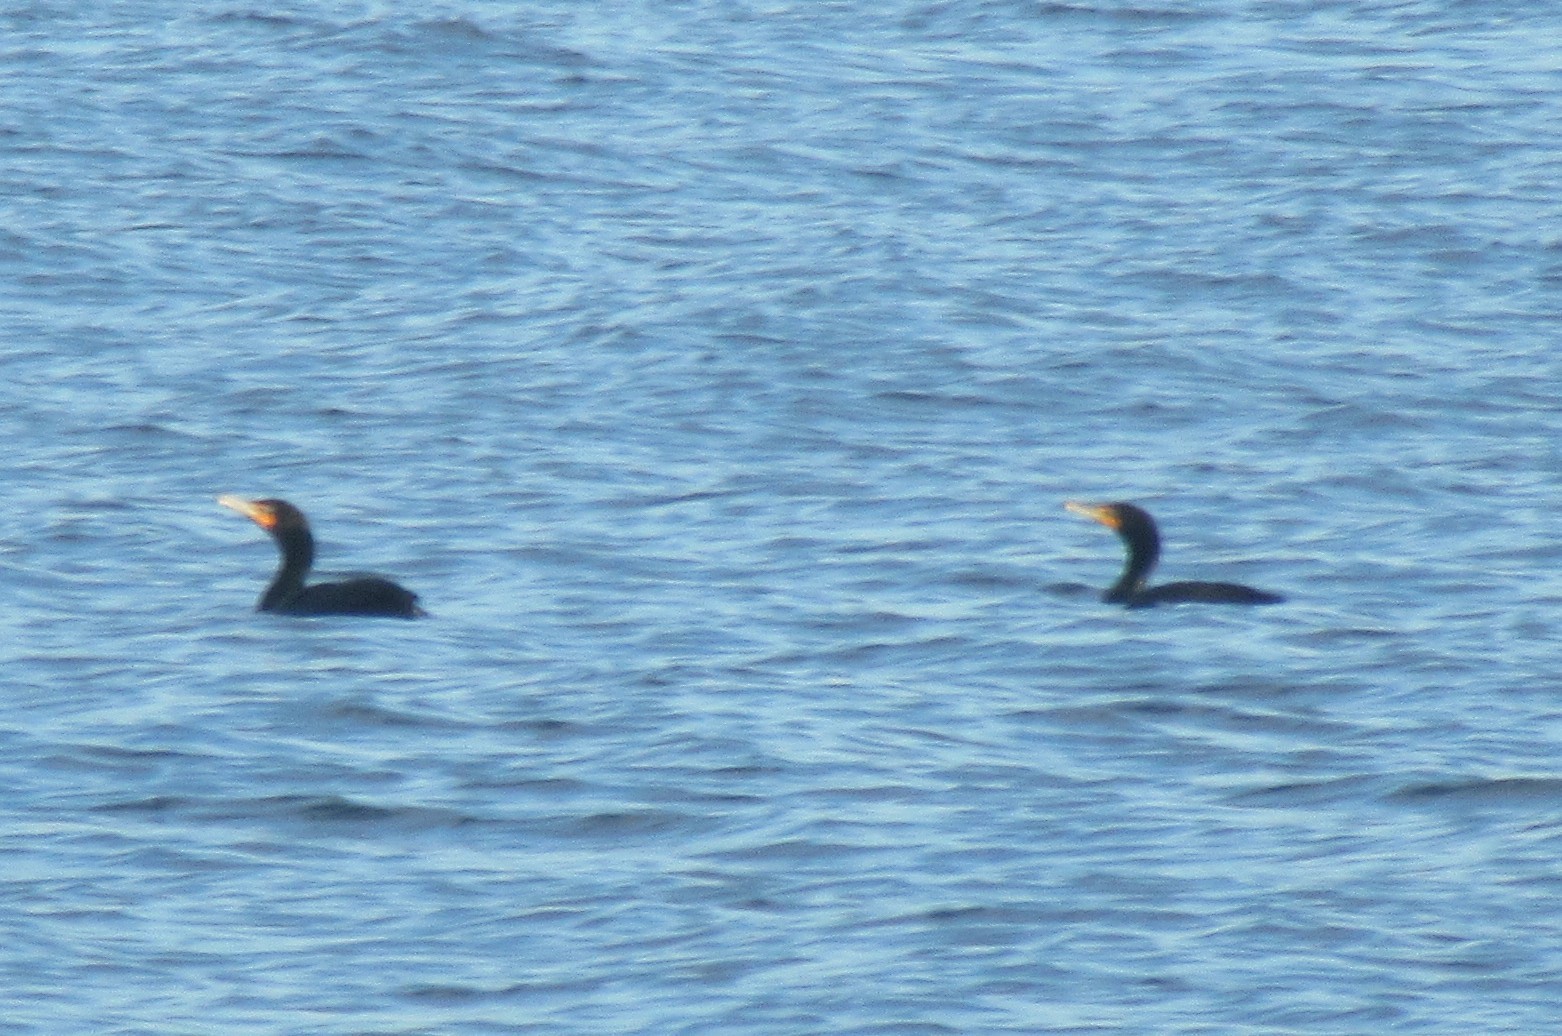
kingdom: Animalia
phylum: Chordata
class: Aves
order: Suliformes
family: Phalacrocoracidae
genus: Phalacrocorax
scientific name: Phalacrocorax auritus
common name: Double-crested cormorant
